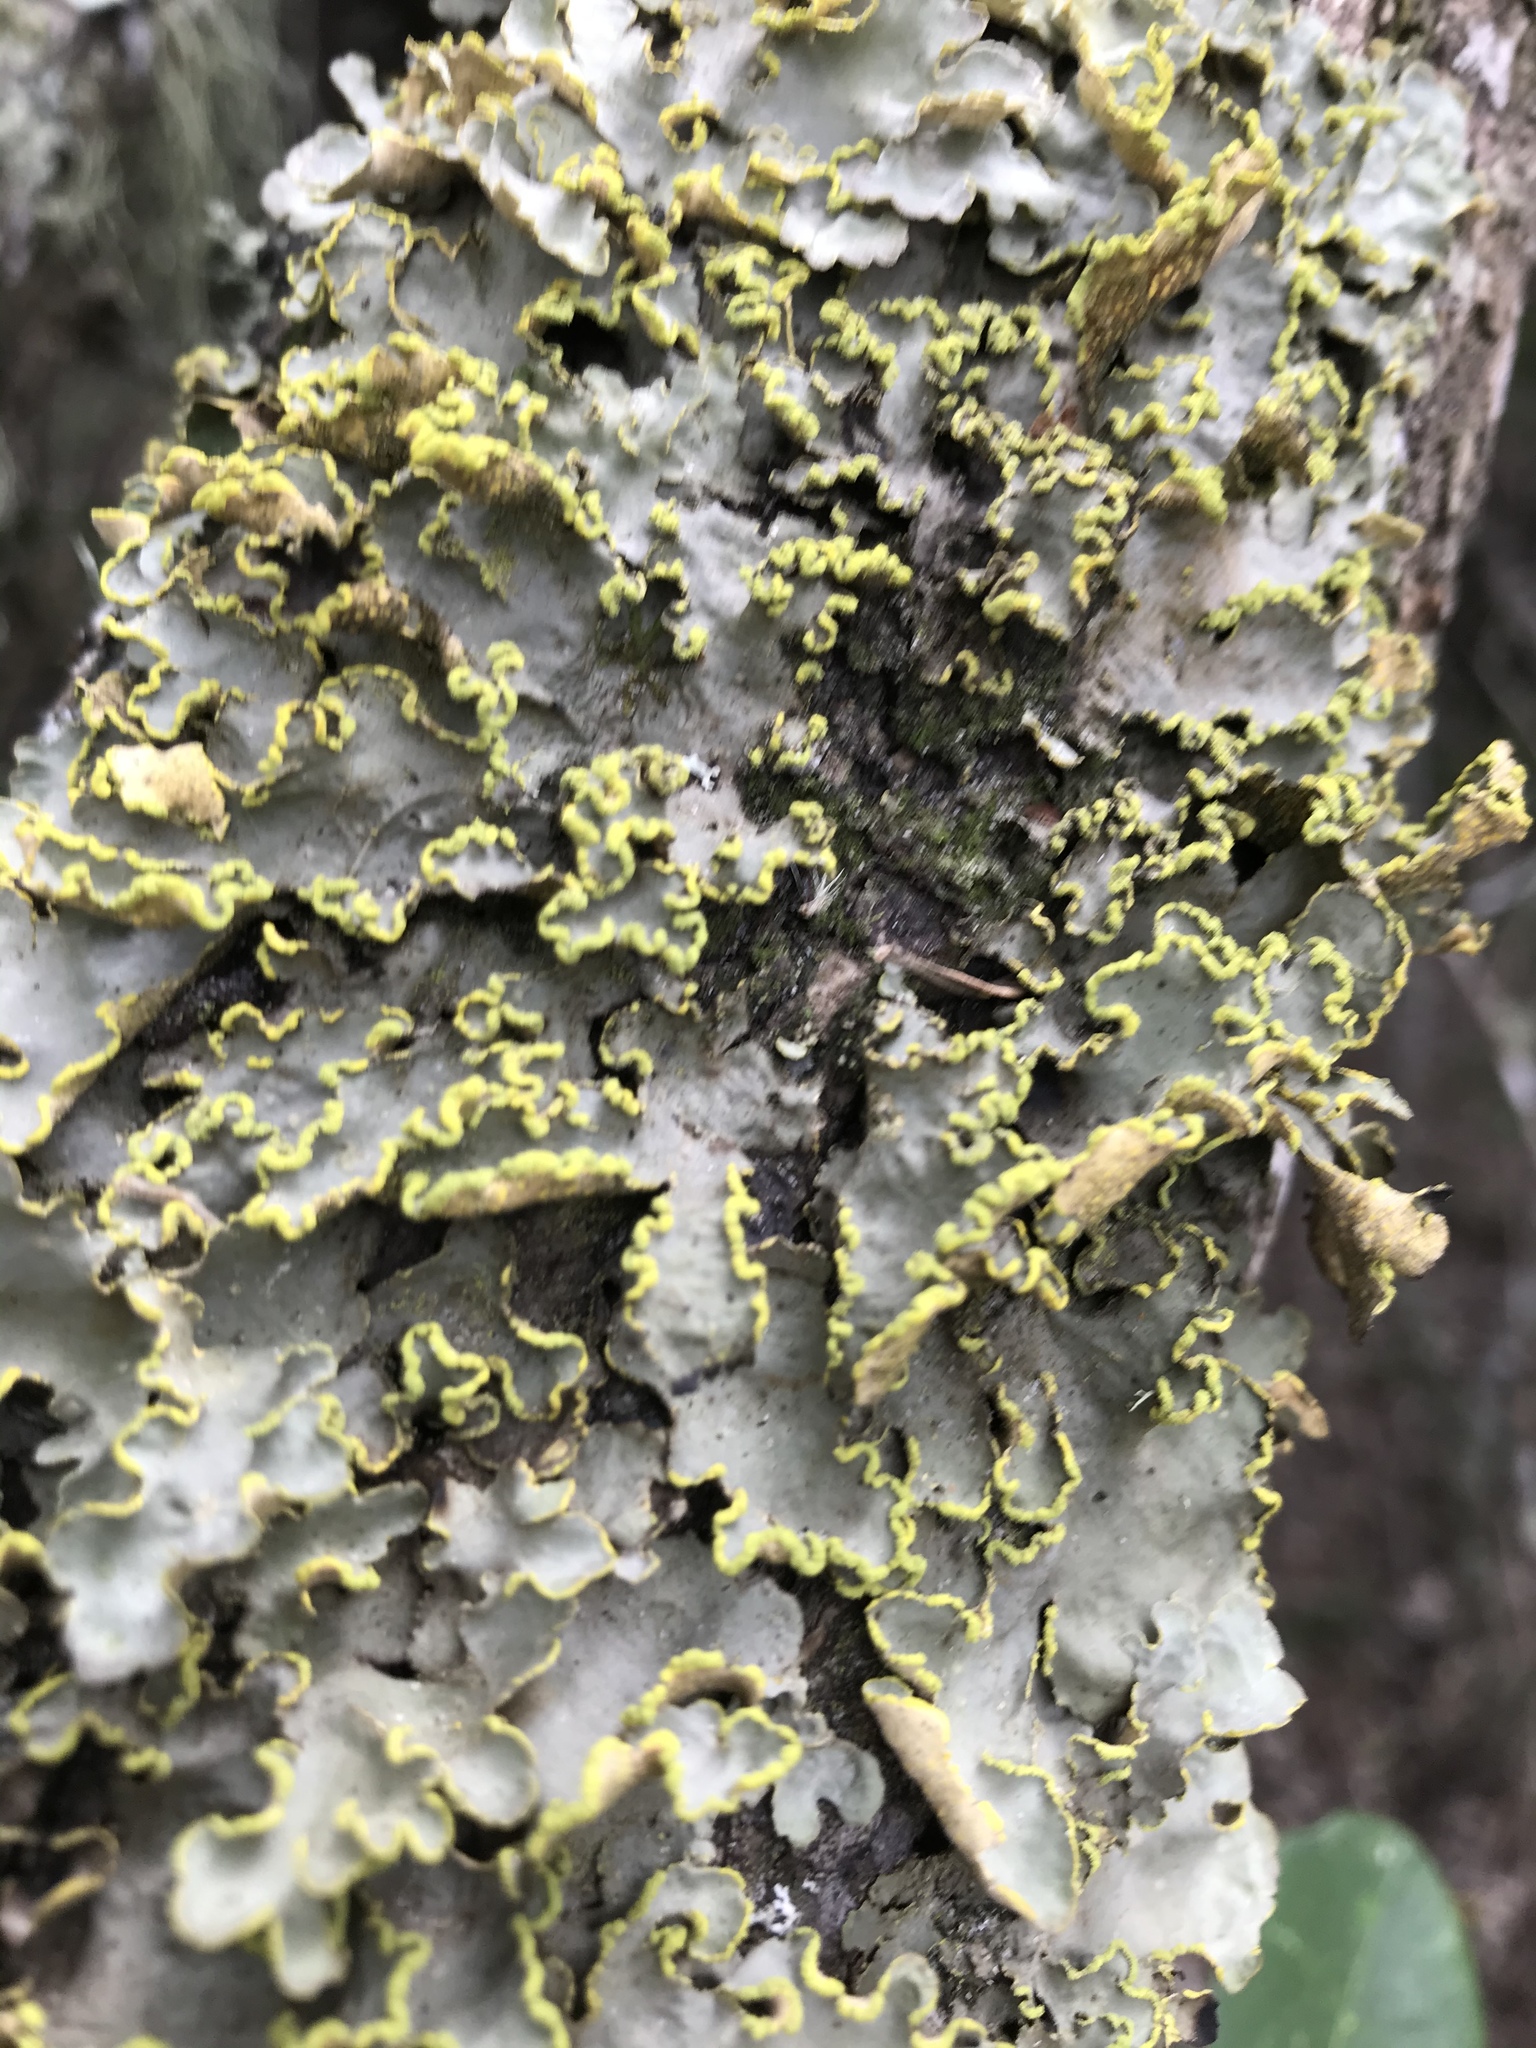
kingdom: Fungi
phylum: Ascomycota
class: Lecanoromycetes
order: Peltigerales
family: Lobariaceae
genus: Pseudocyphellaria
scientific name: Pseudocyphellaria aurata
